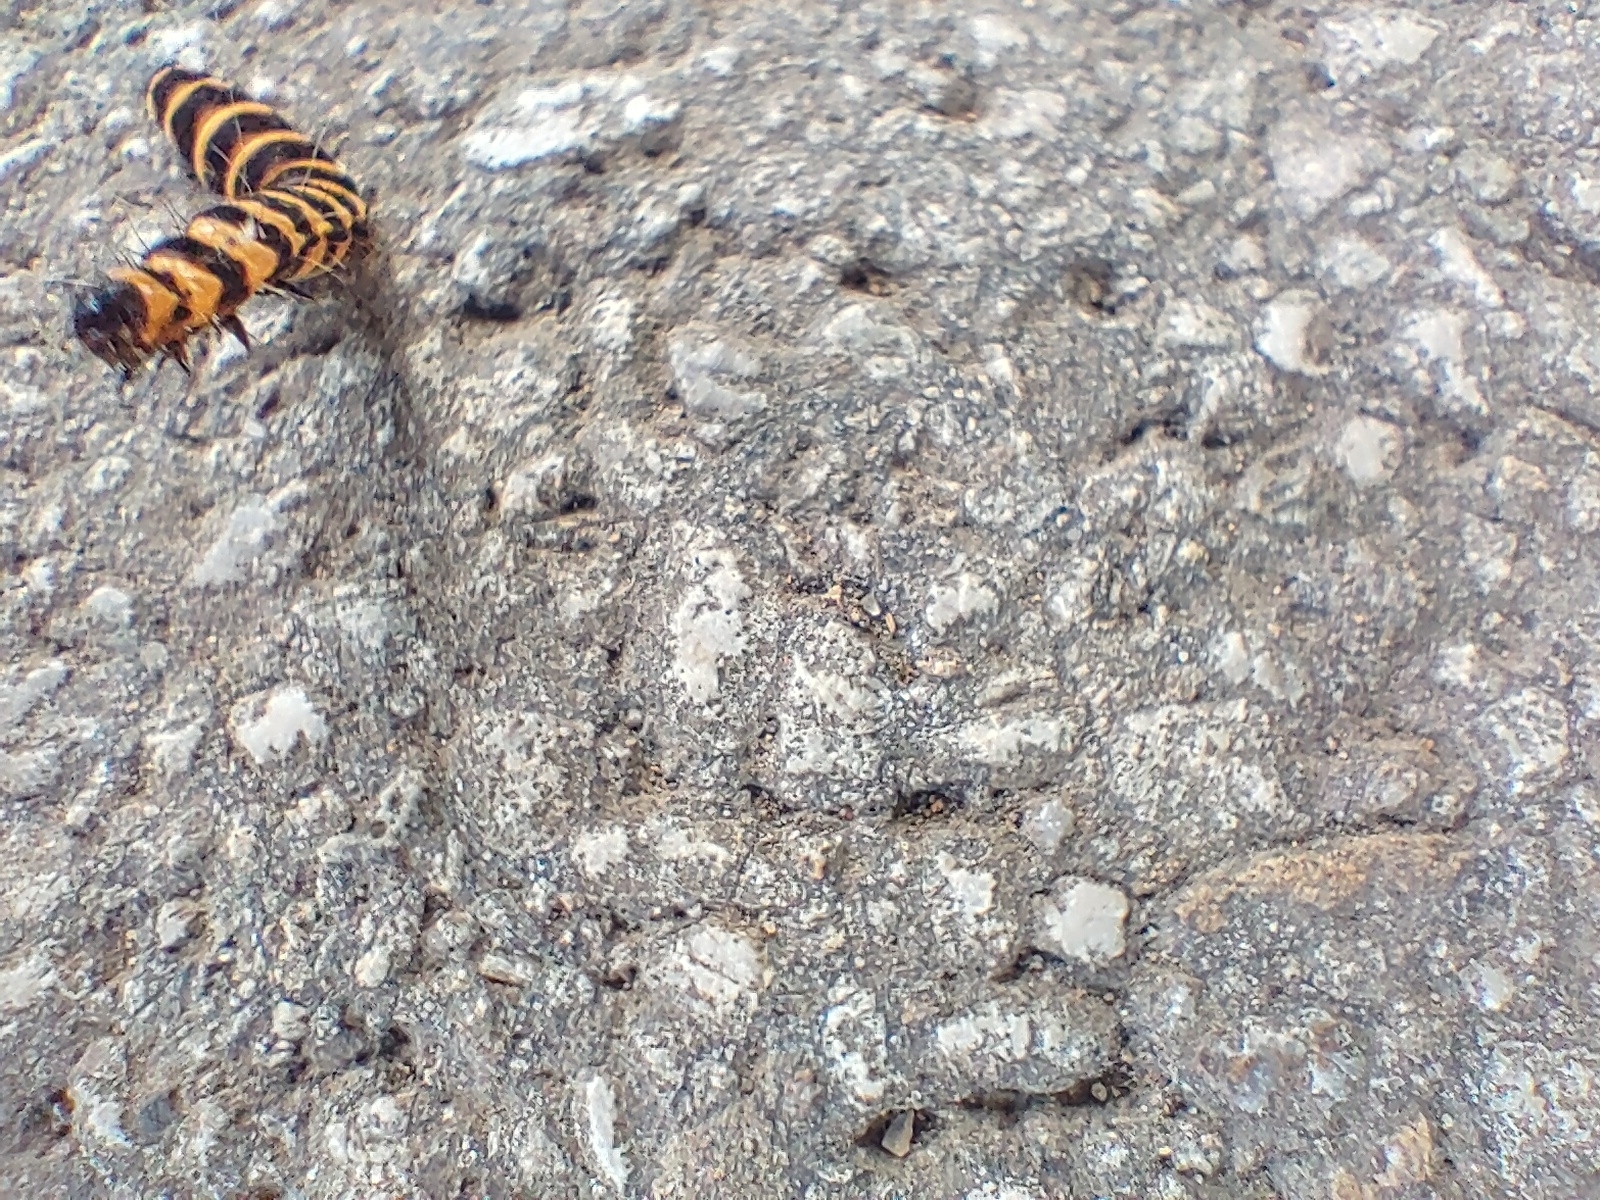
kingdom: Animalia
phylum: Arthropoda
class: Insecta
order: Lepidoptera
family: Erebidae
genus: Tyria
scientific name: Tyria jacobaeae
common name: Cinnabar
